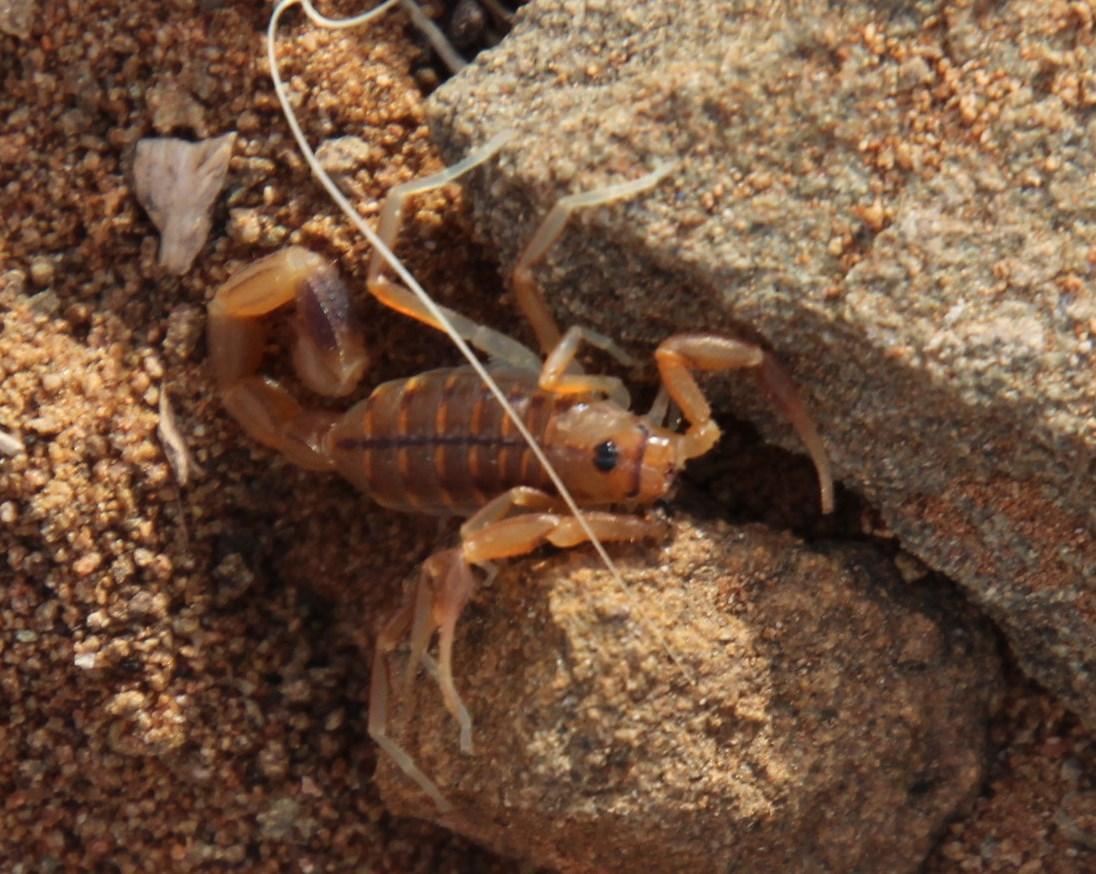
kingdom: Animalia
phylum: Arthropoda
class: Arachnida
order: Scorpiones
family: Buthidae
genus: Uroplectes
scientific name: Uroplectes carinatus
